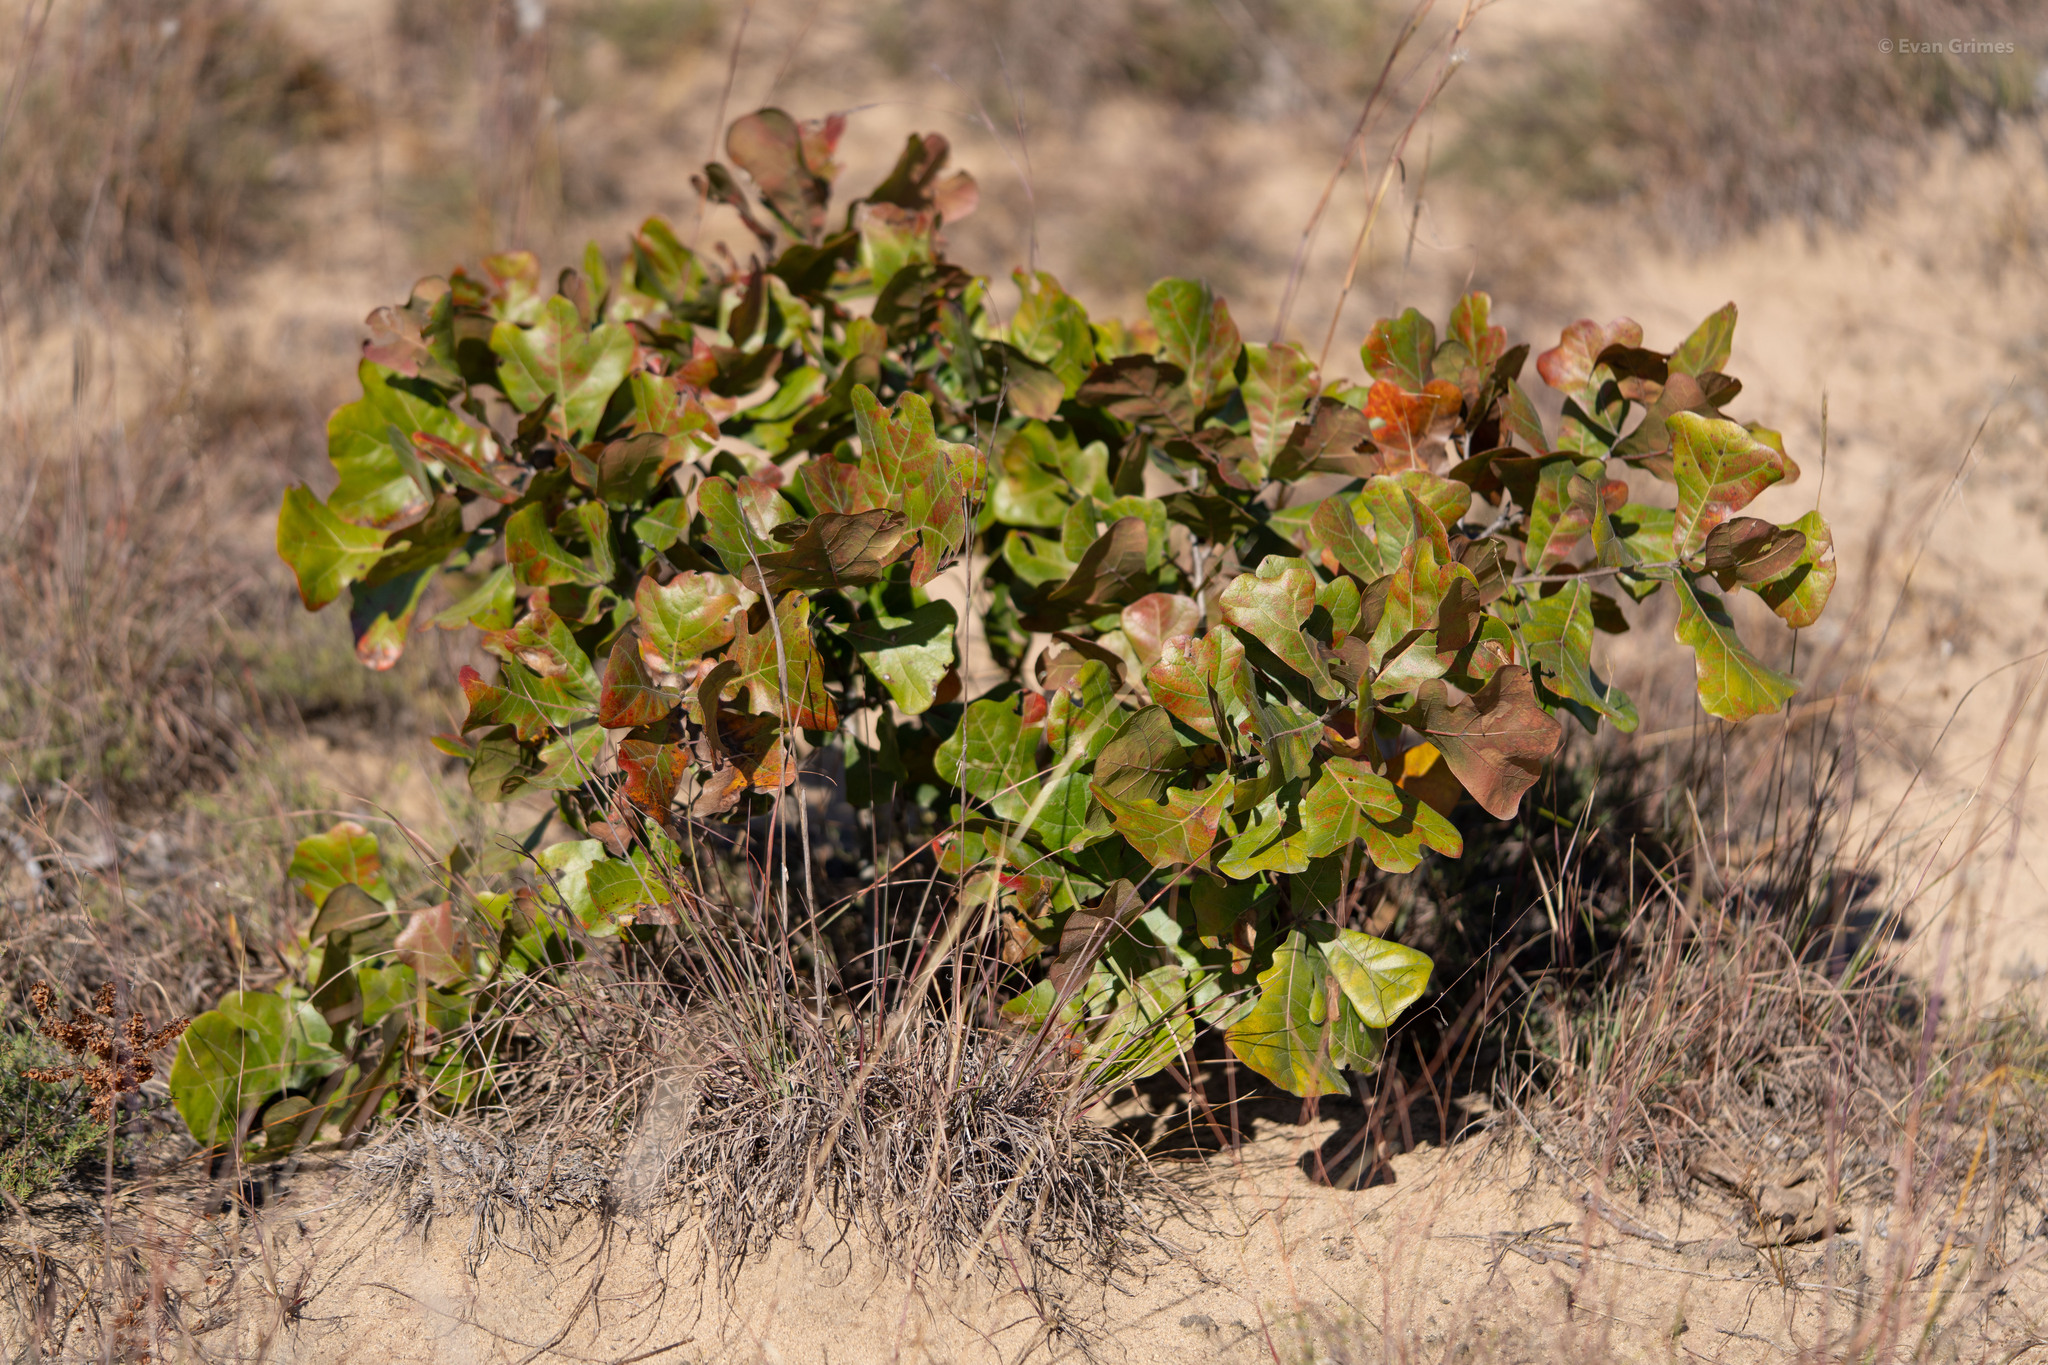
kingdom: Plantae
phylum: Tracheophyta
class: Magnoliopsida
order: Fagales
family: Fagaceae
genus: Quercus
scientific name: Quercus marilandica
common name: Blackjack oak
